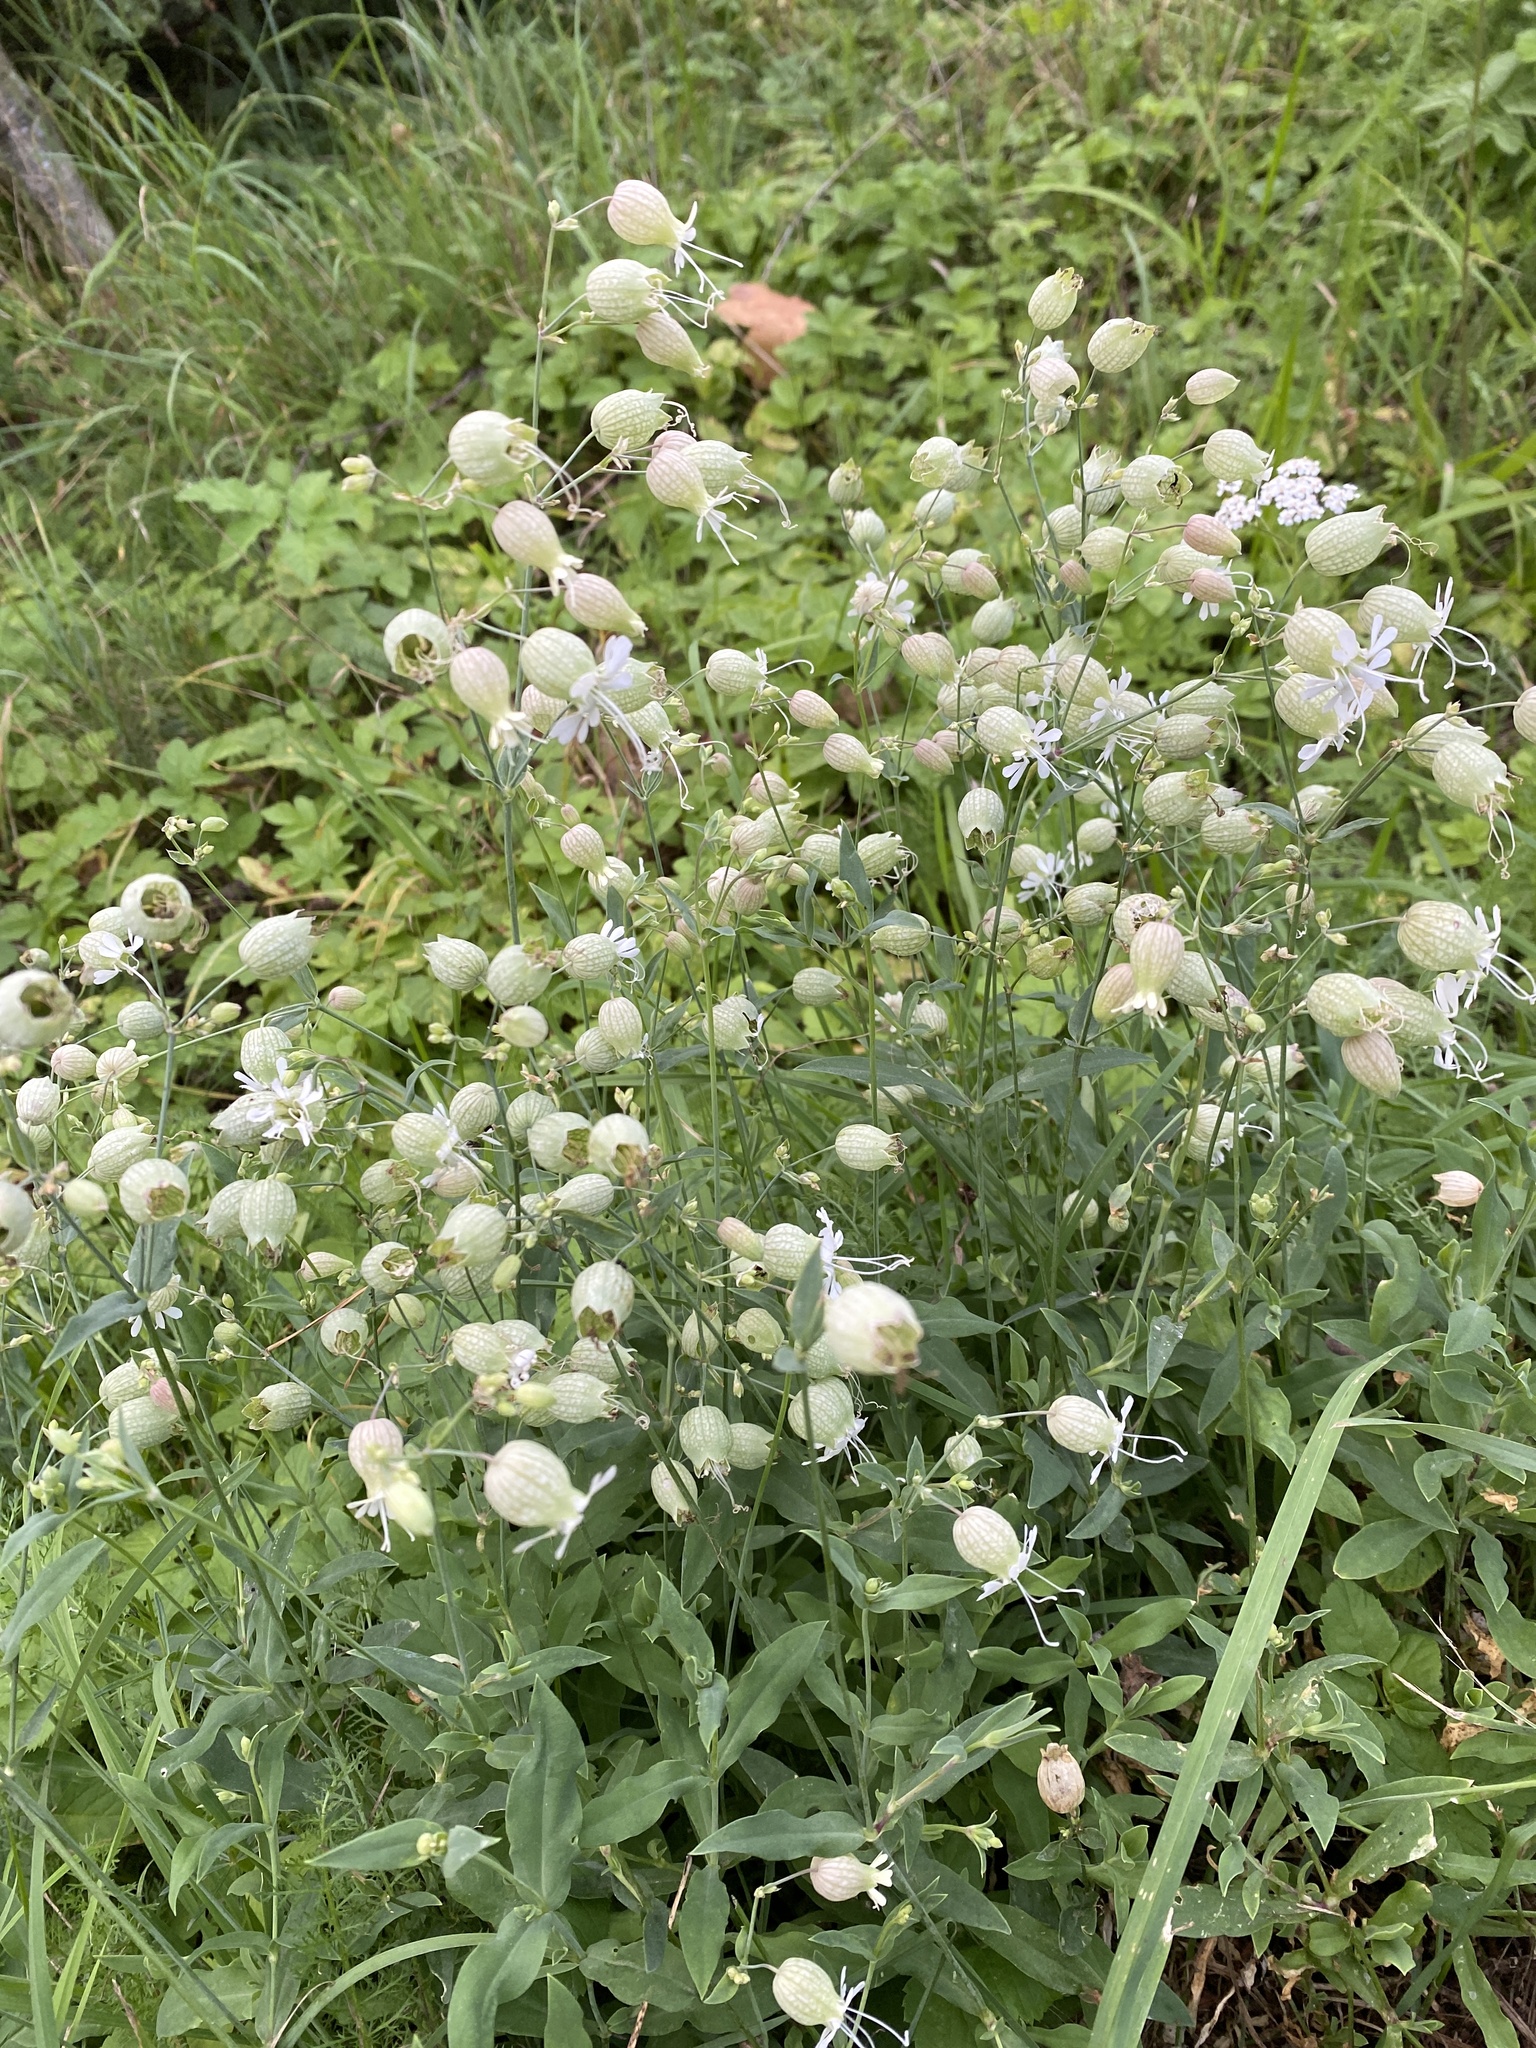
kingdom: Plantae
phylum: Tracheophyta
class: Magnoliopsida
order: Caryophyllales
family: Caryophyllaceae
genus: Silene
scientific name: Silene vulgaris
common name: Bladder campion
